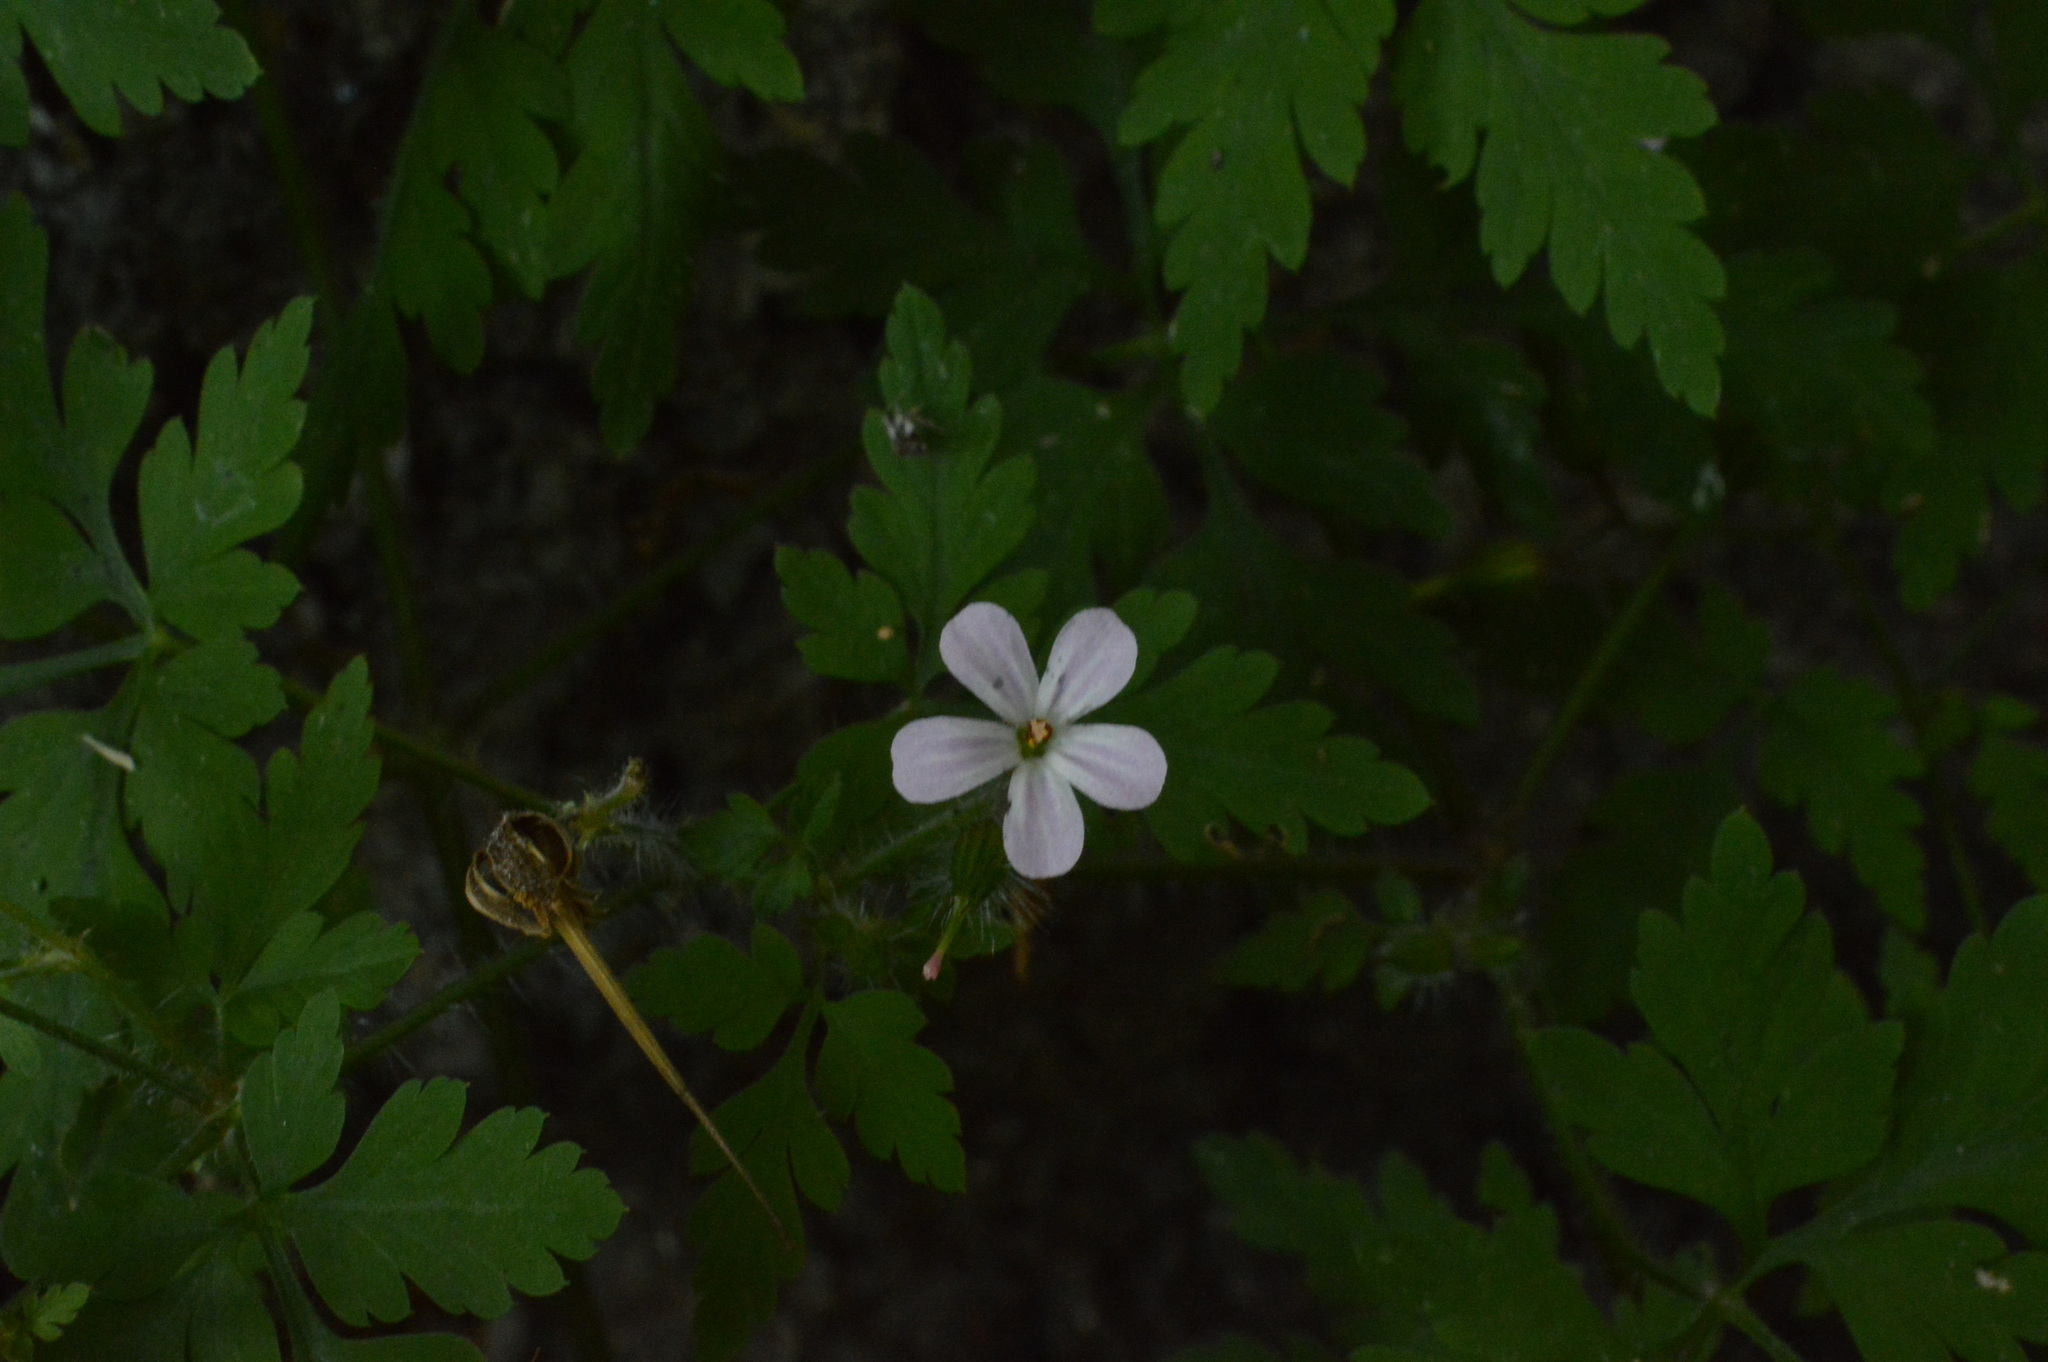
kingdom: Plantae
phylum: Tracheophyta
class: Magnoliopsida
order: Geraniales
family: Geraniaceae
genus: Geranium
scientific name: Geranium robertianum
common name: Herb-robert
